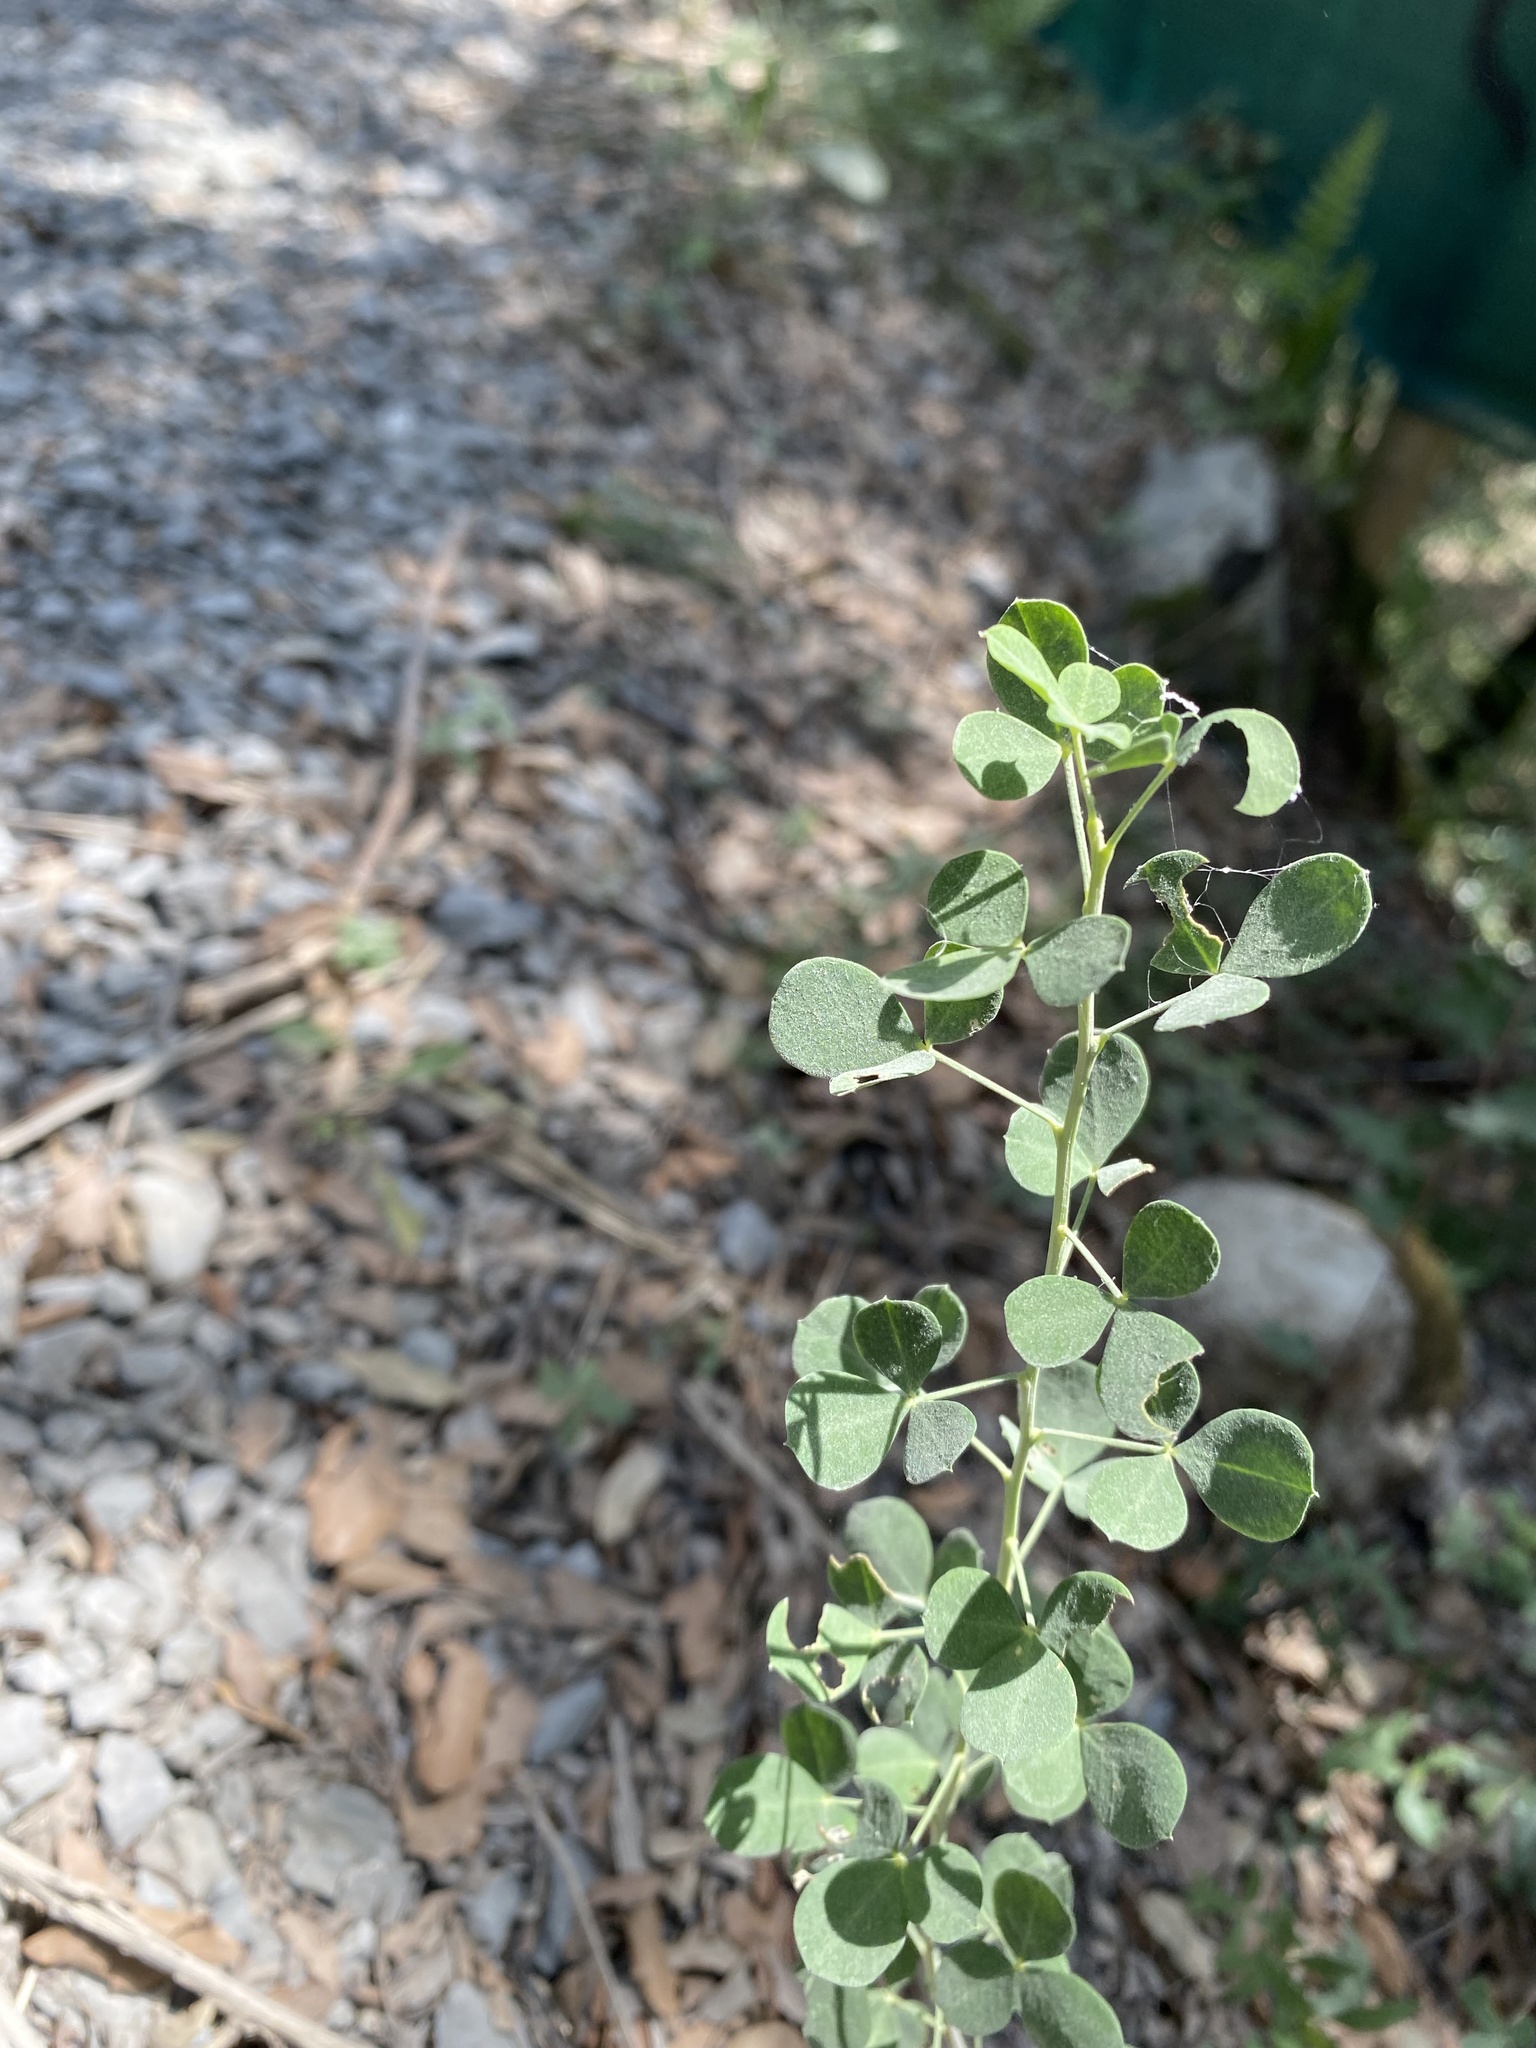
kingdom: Plantae
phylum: Tracheophyta
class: Magnoliopsida
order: Fabales
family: Fabaceae
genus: Medicago
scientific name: Medicago lupulina
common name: Black medick
